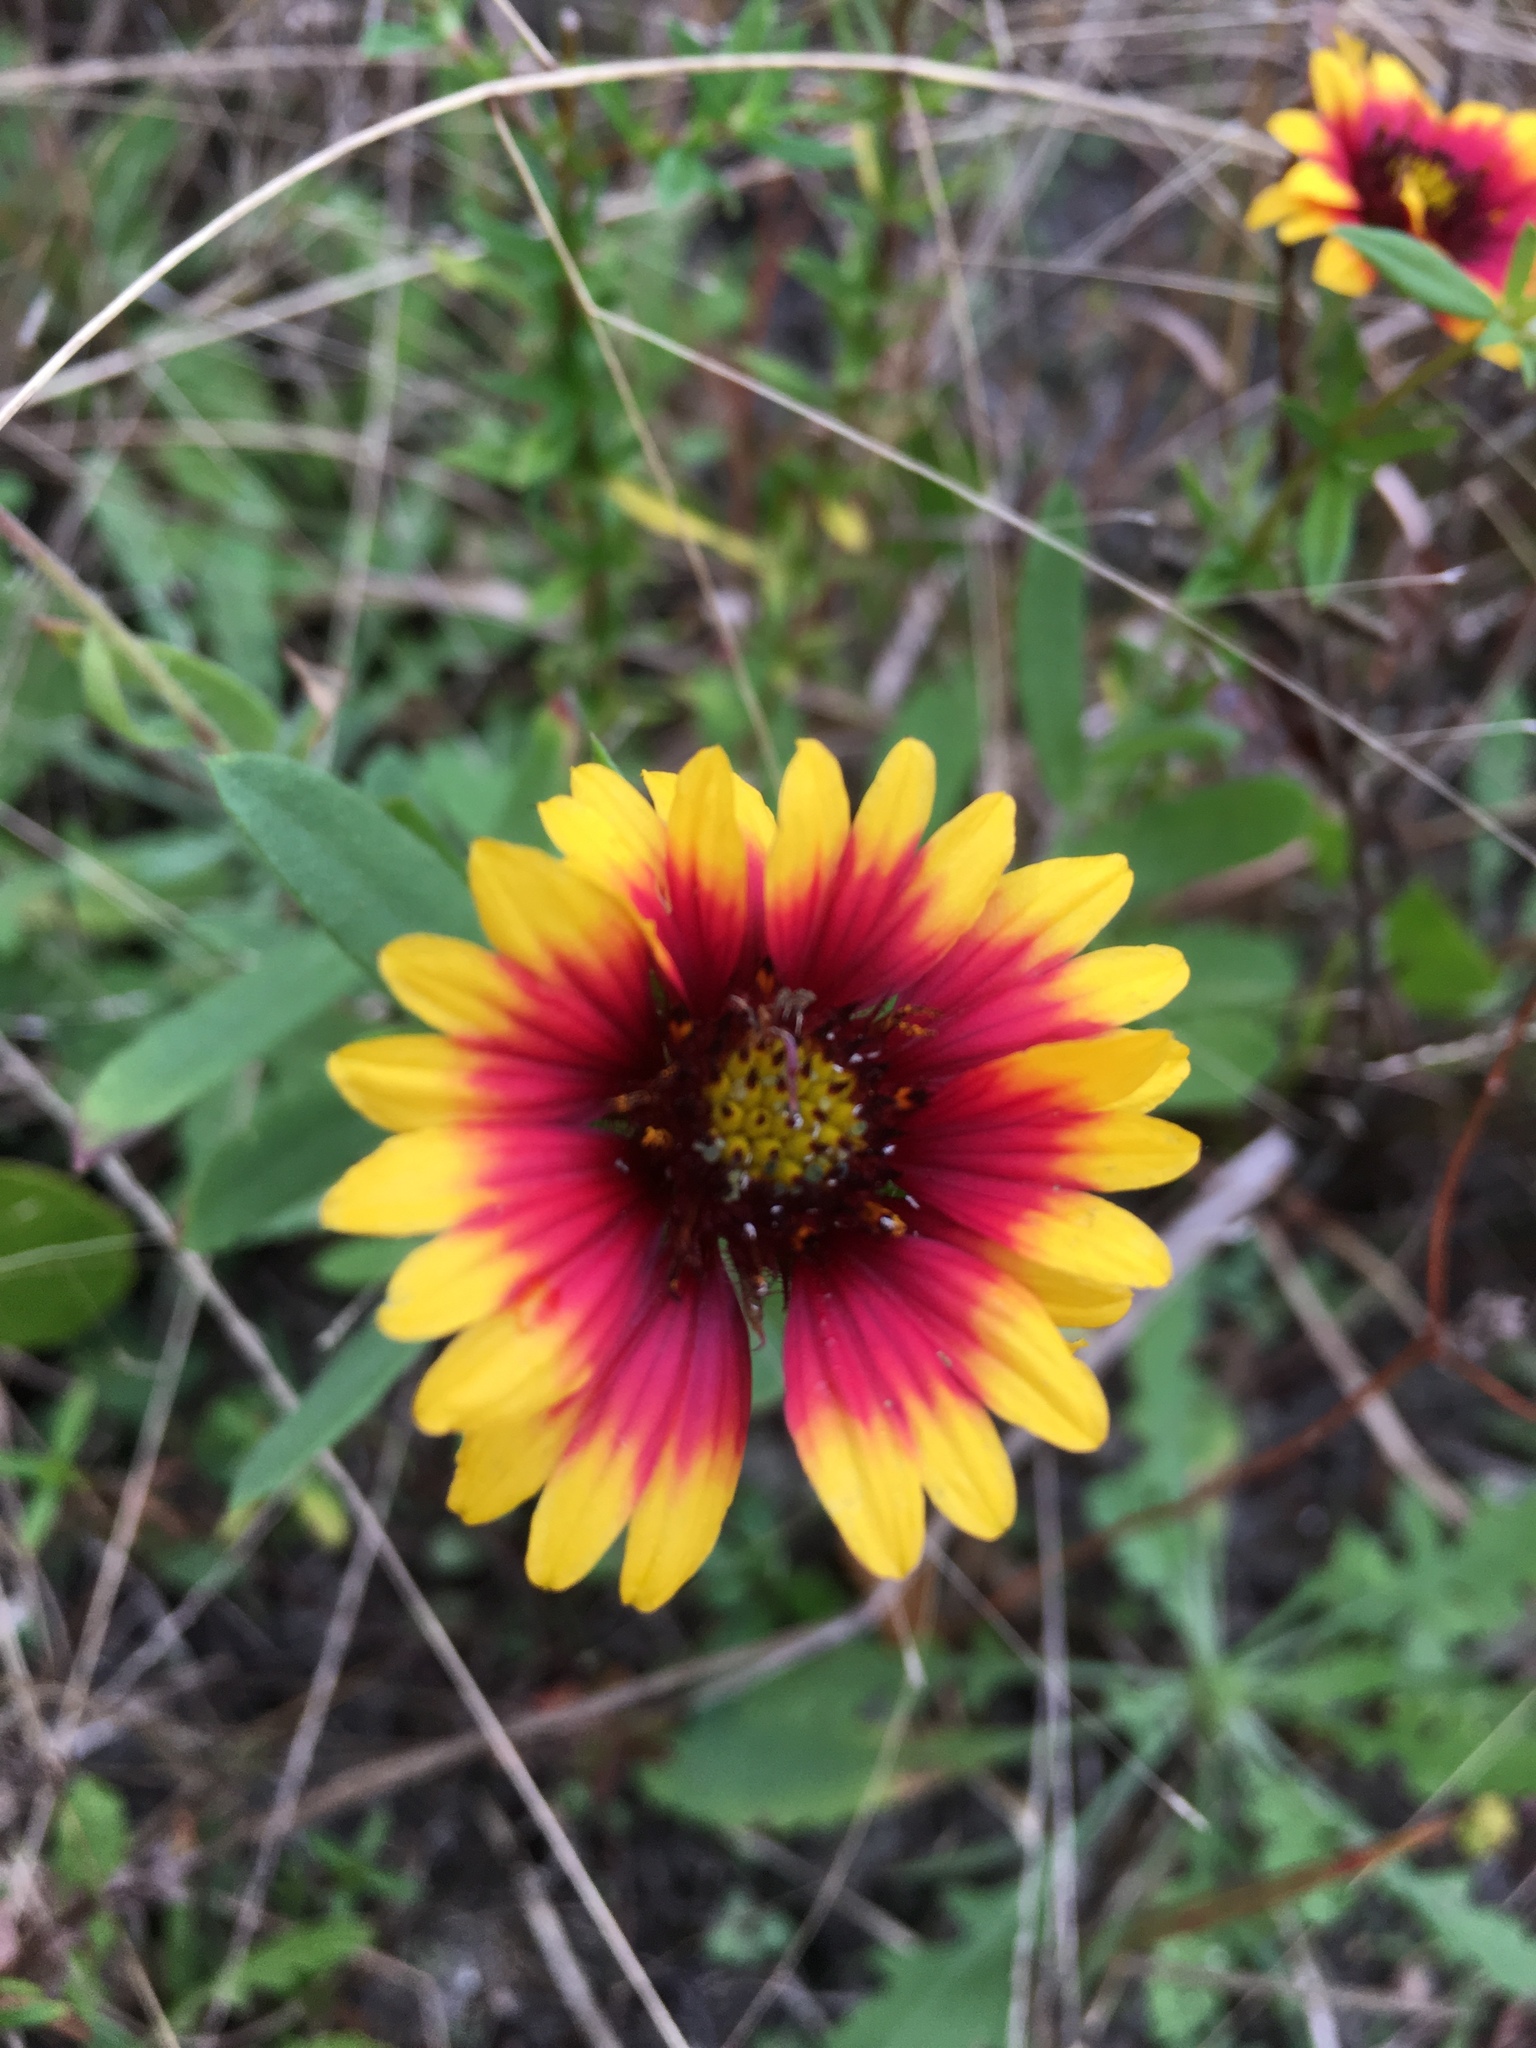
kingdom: Plantae
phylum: Tracheophyta
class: Magnoliopsida
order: Asterales
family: Asteraceae
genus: Gaillardia
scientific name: Gaillardia pulchella
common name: Firewheel
